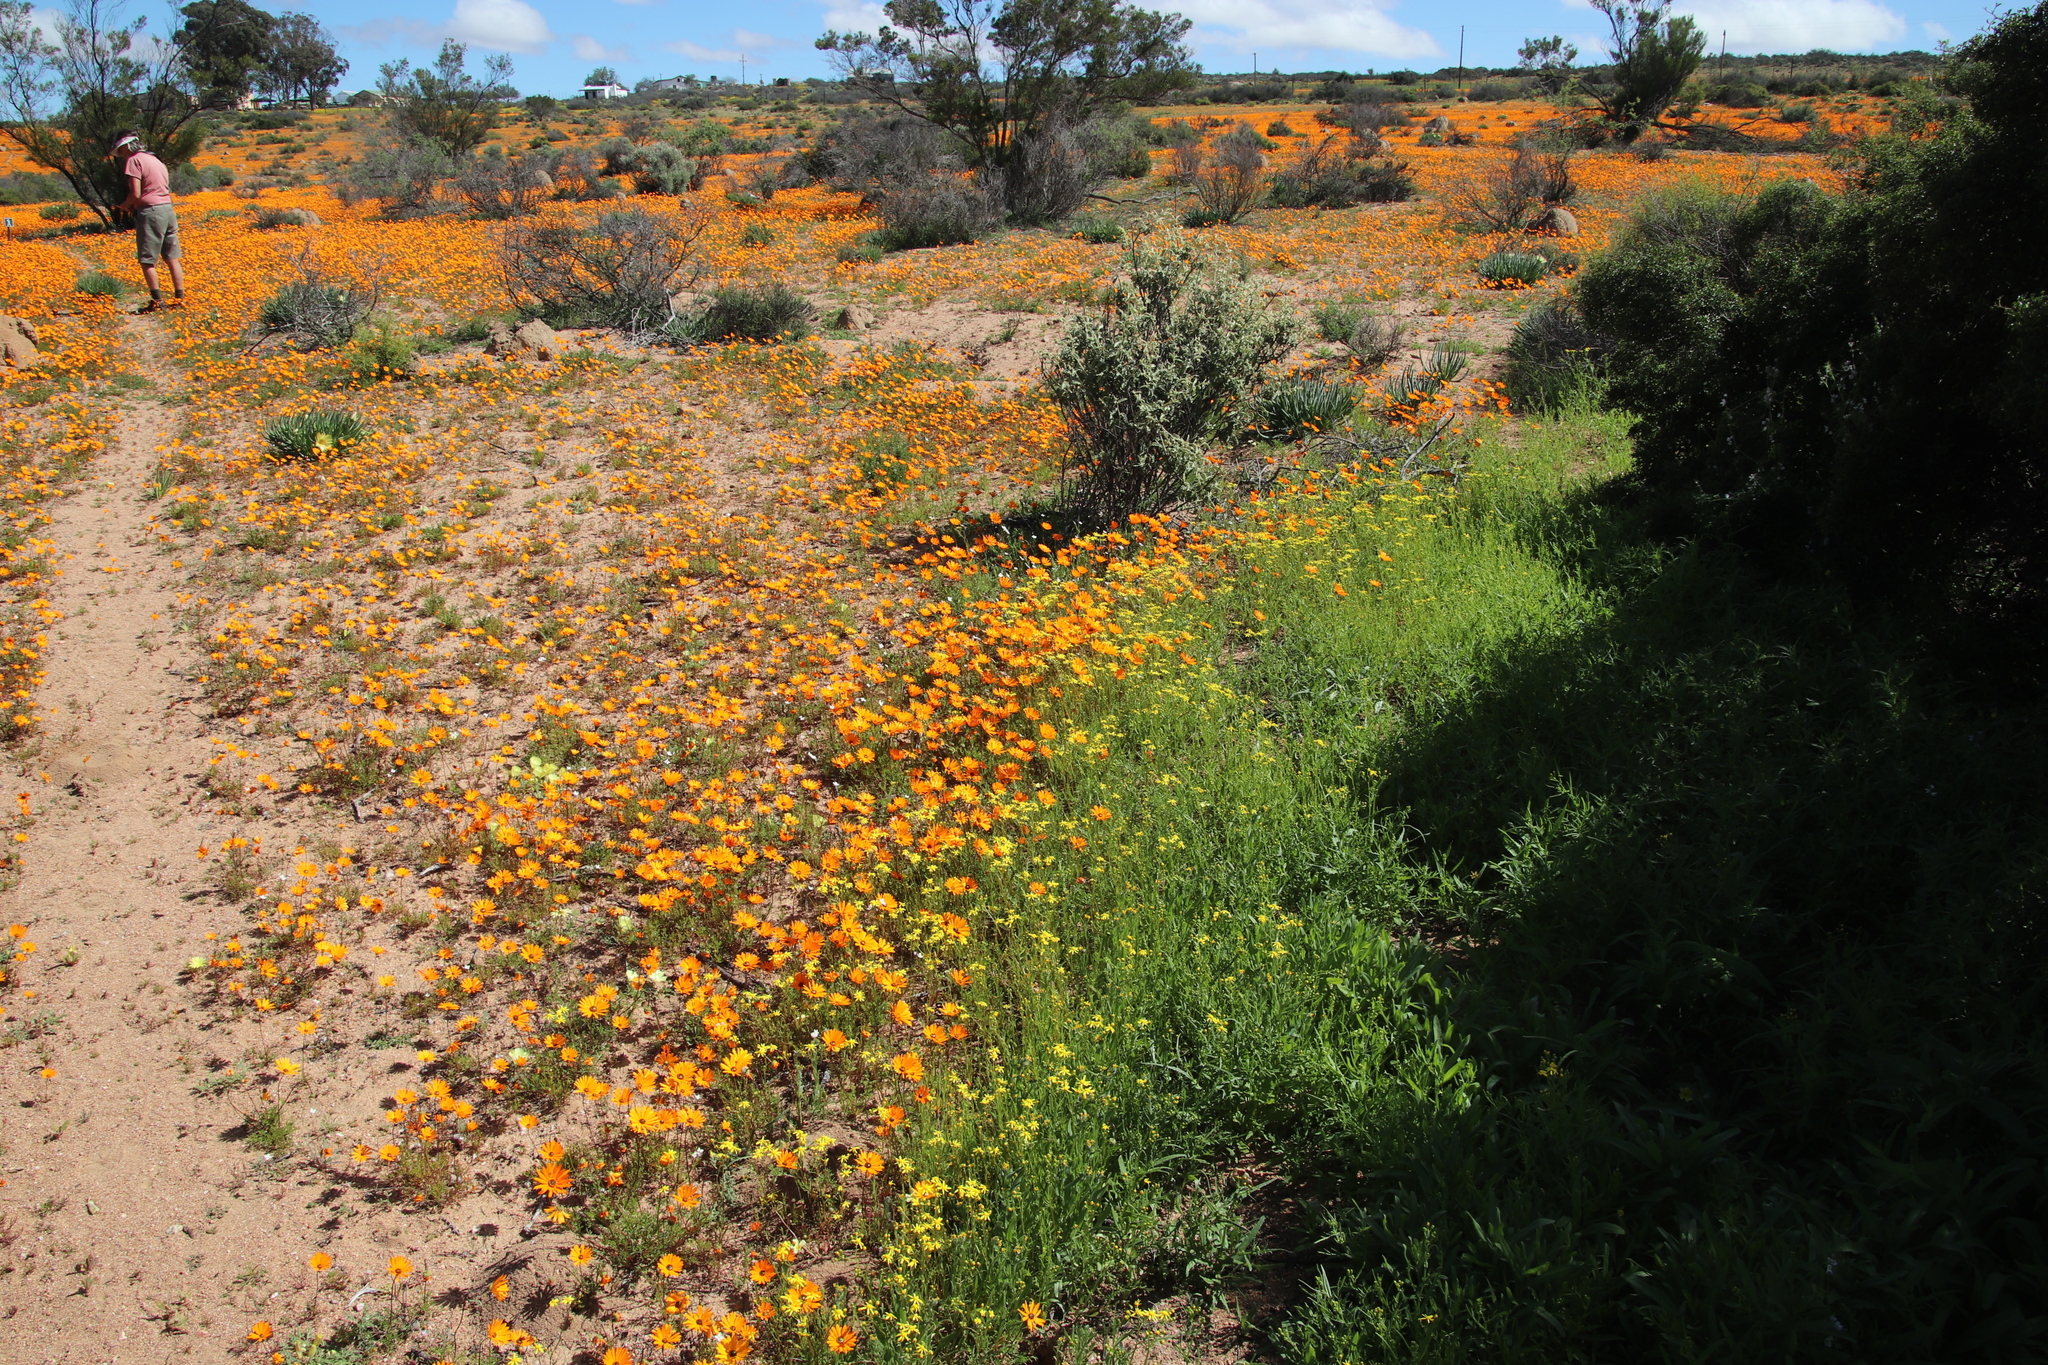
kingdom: Plantae
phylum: Tracheophyta
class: Magnoliopsida
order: Asterales
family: Asteraceae
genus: Senecio
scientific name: Senecio abruptus
